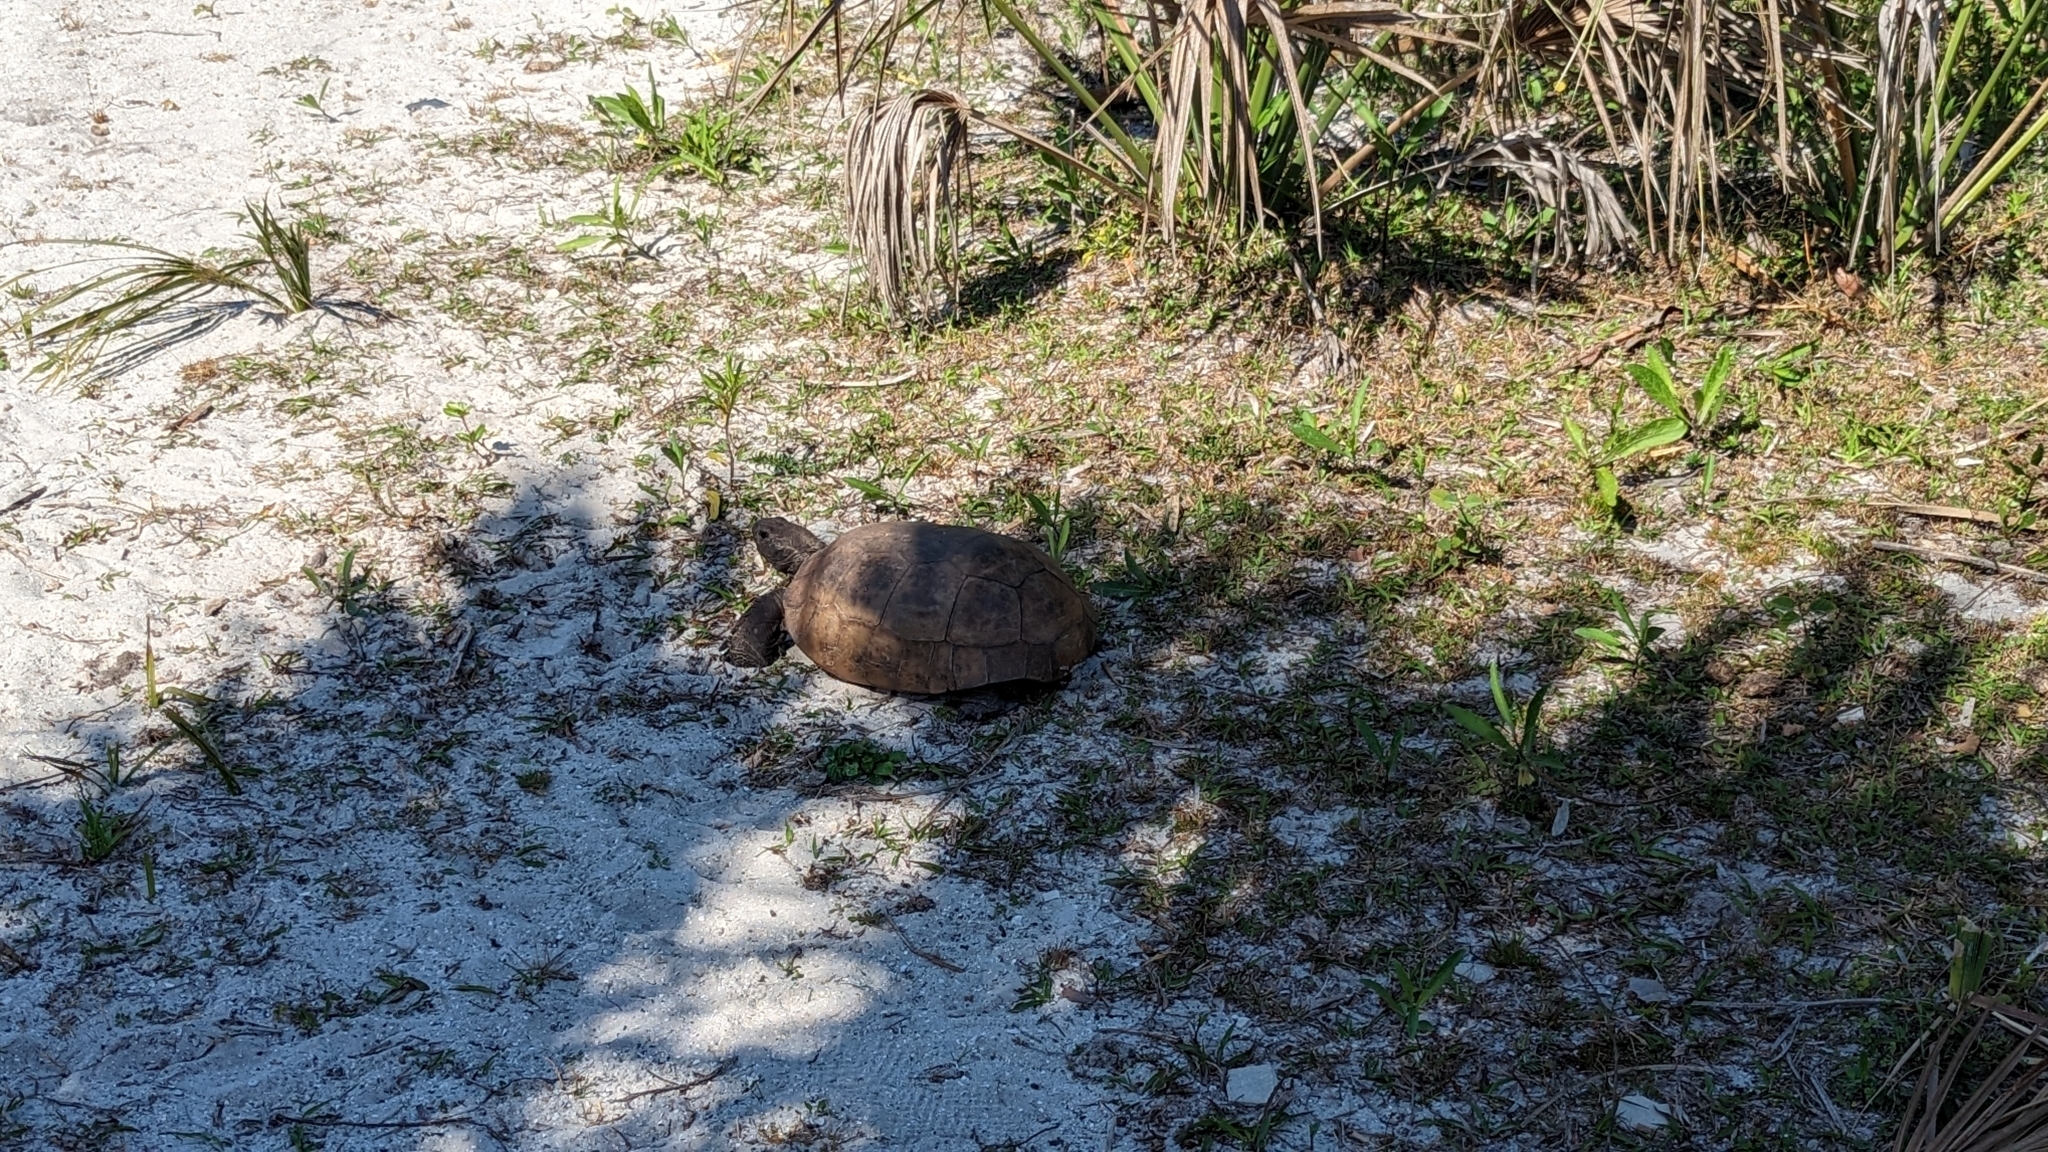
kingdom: Animalia
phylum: Chordata
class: Testudines
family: Testudinidae
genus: Gopherus
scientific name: Gopherus polyphemus
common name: Florida gopher tortoise
